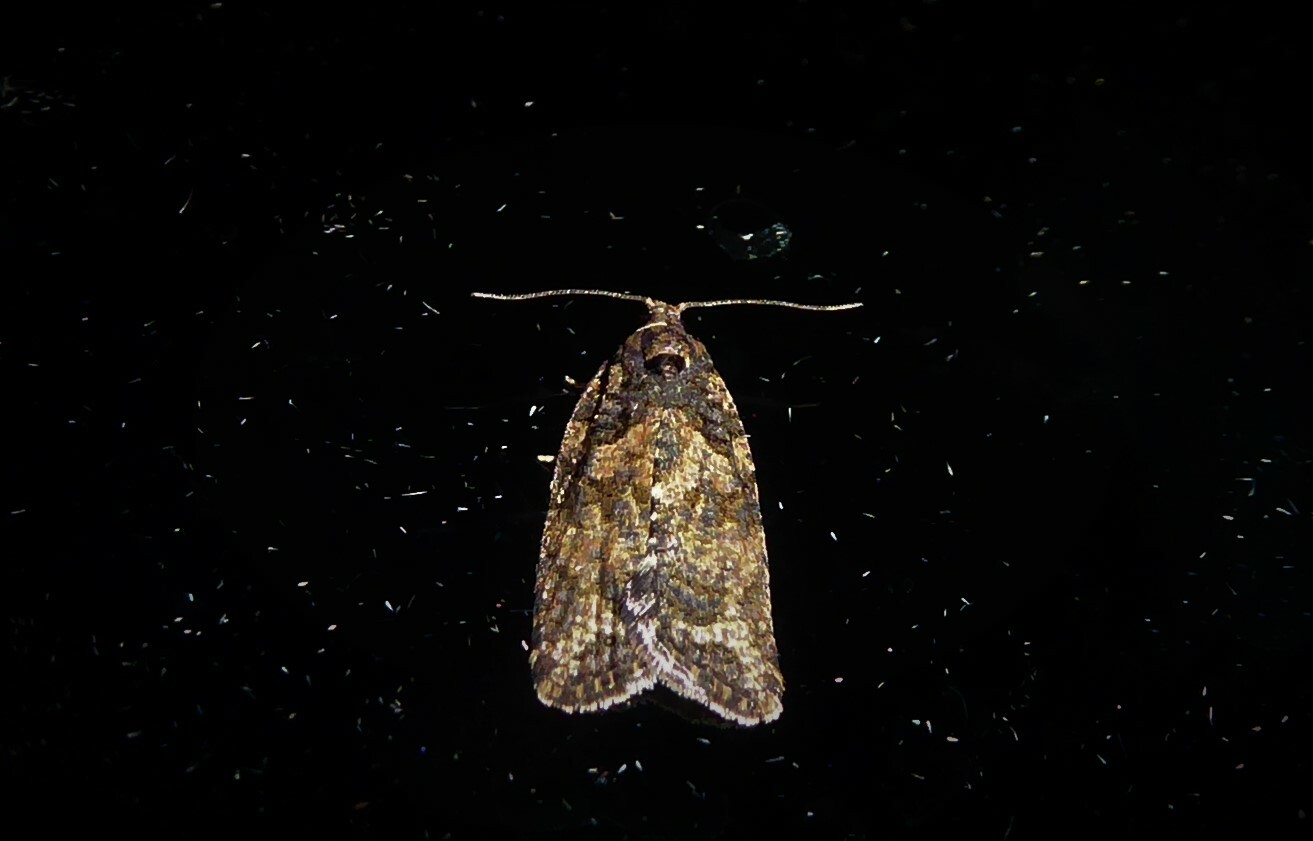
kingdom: Animalia
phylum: Arthropoda
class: Insecta
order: Lepidoptera
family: Tortricidae
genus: Capua
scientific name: Capua intractana
